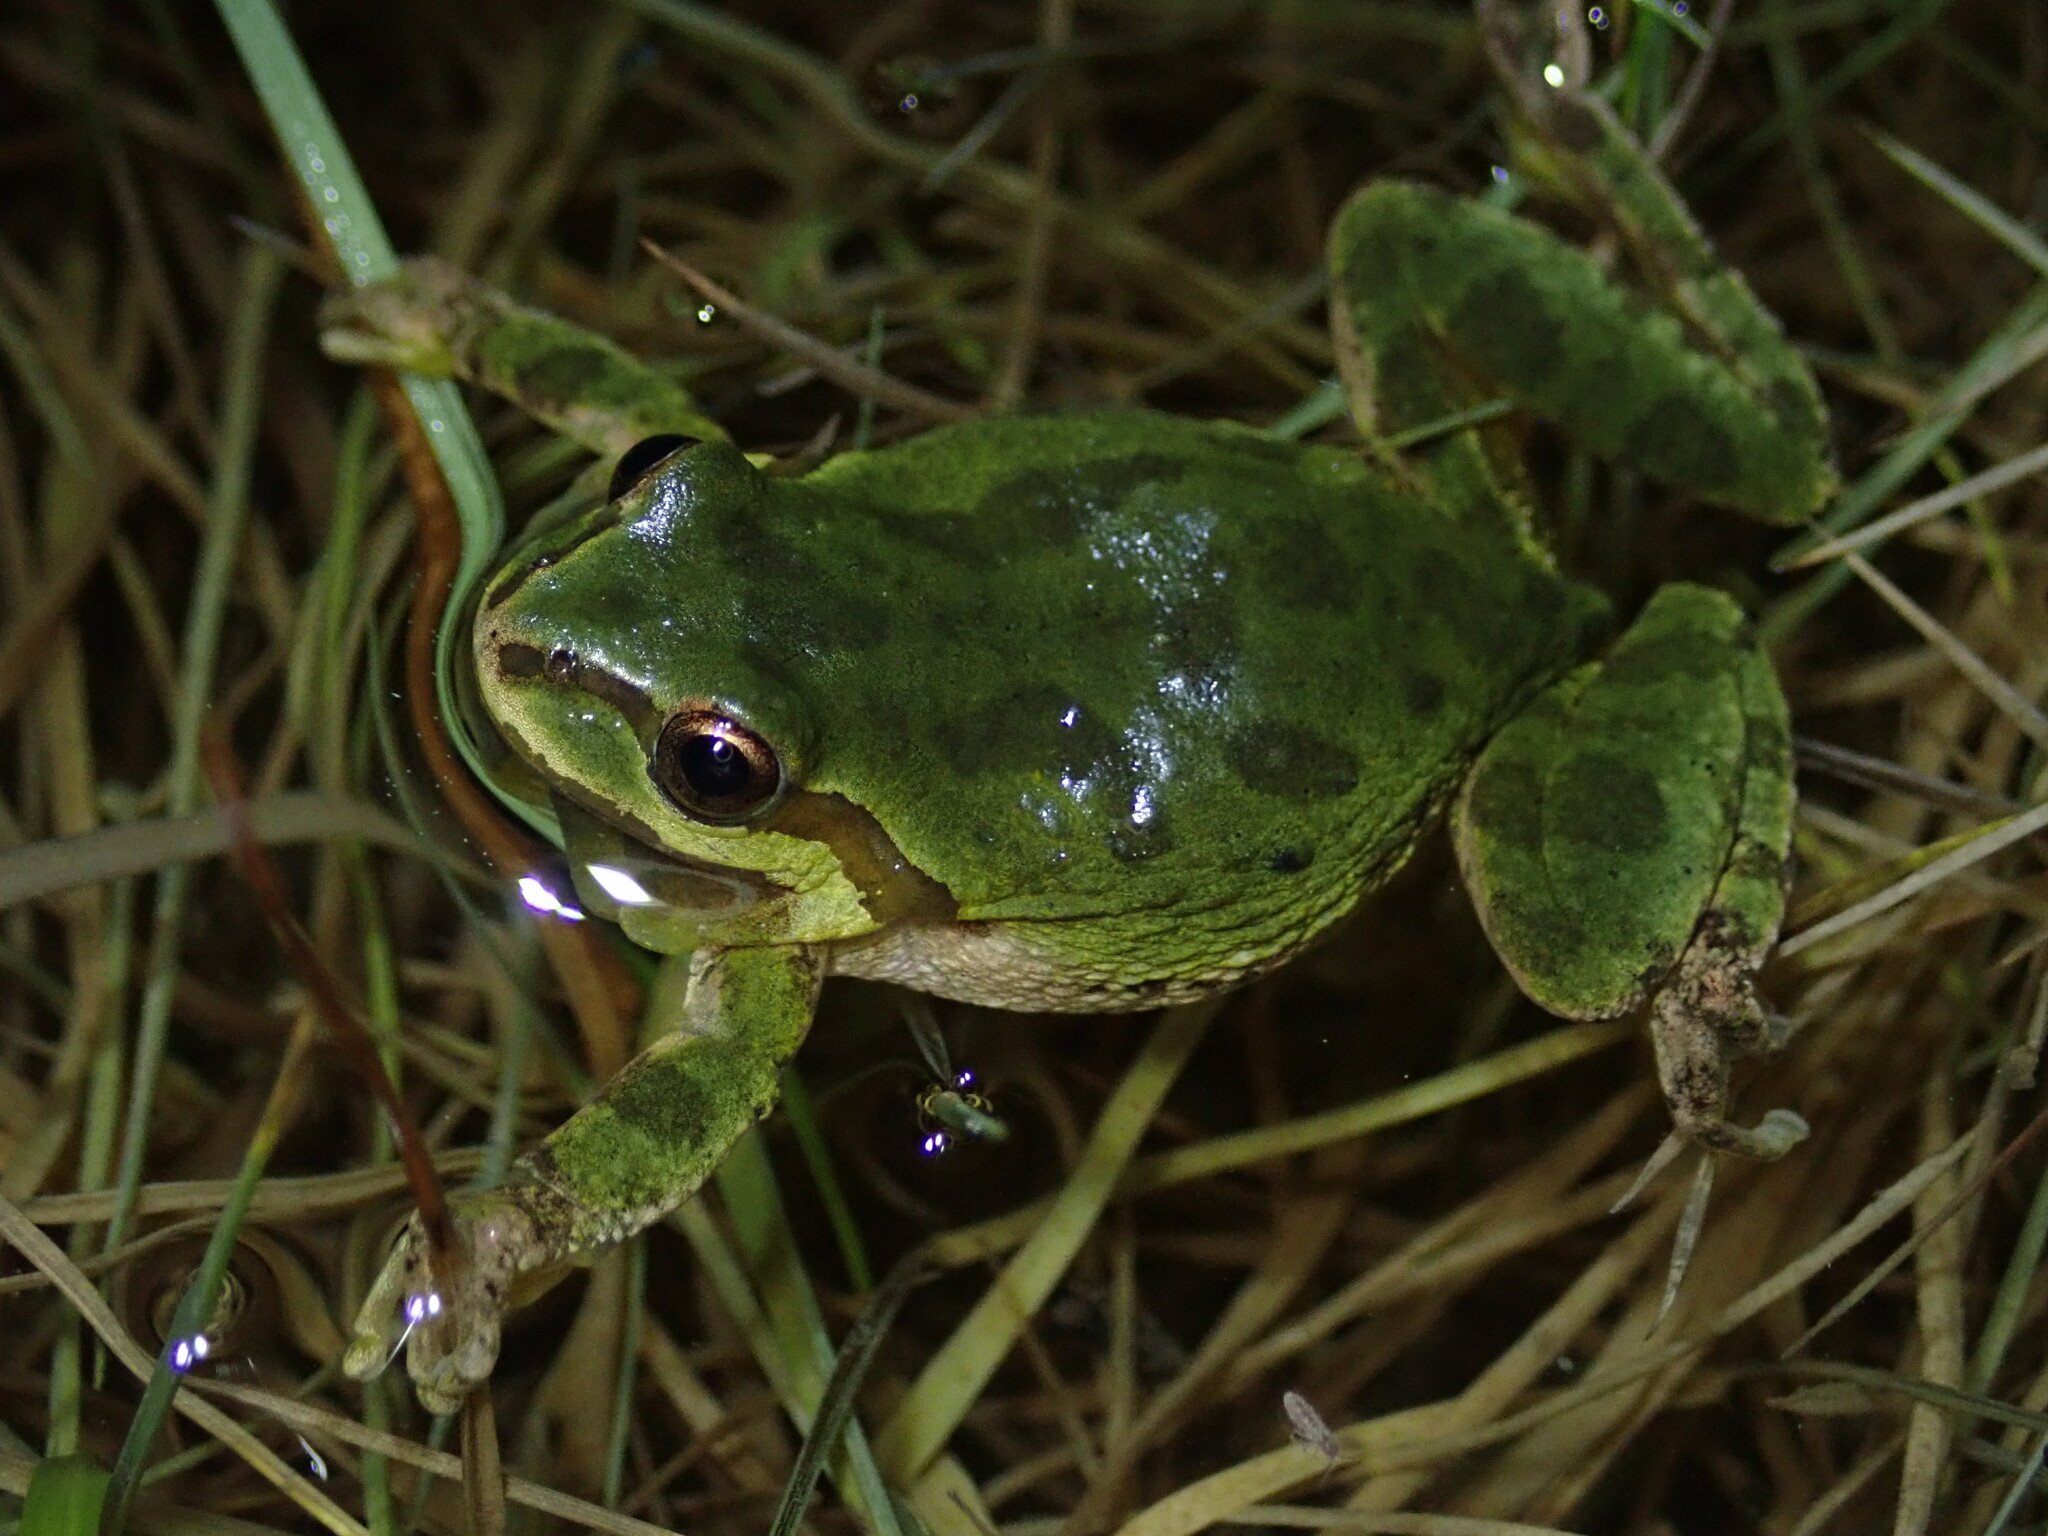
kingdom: Animalia
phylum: Chordata
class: Amphibia
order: Anura
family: Hylidae
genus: Pseudacris
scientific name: Pseudacris regilla
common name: Pacific chorus frog
